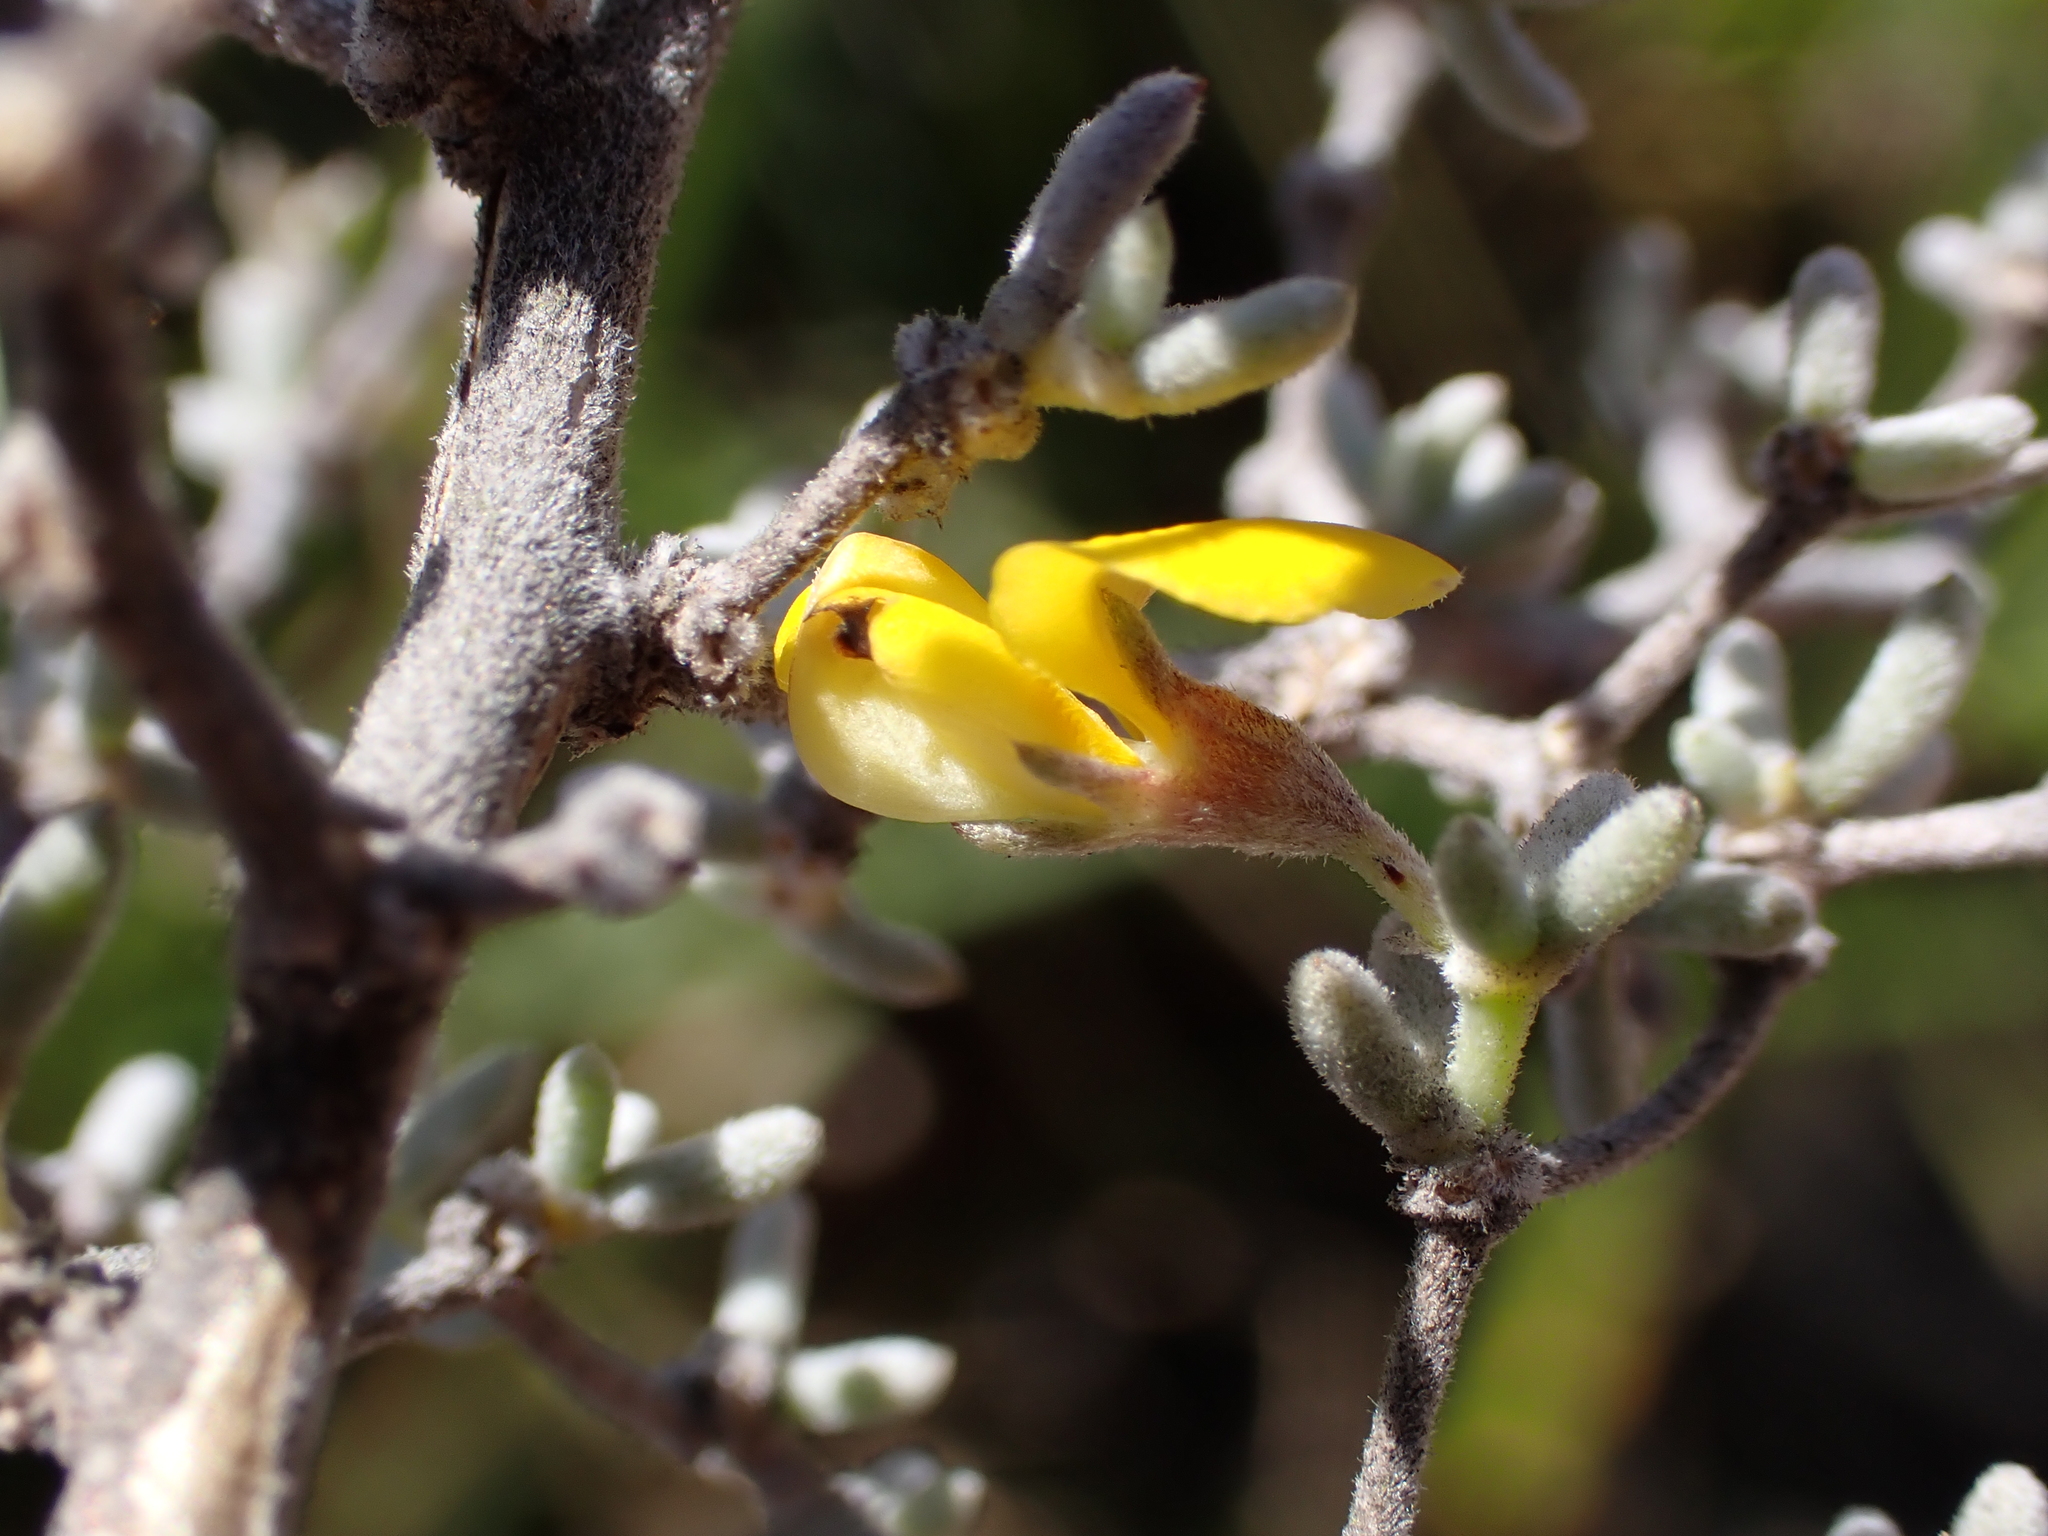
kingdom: Plantae
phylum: Tracheophyta
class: Magnoliopsida
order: Fabales
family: Fabaceae
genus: Aspalathus
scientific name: Aspalathus digitifolia
